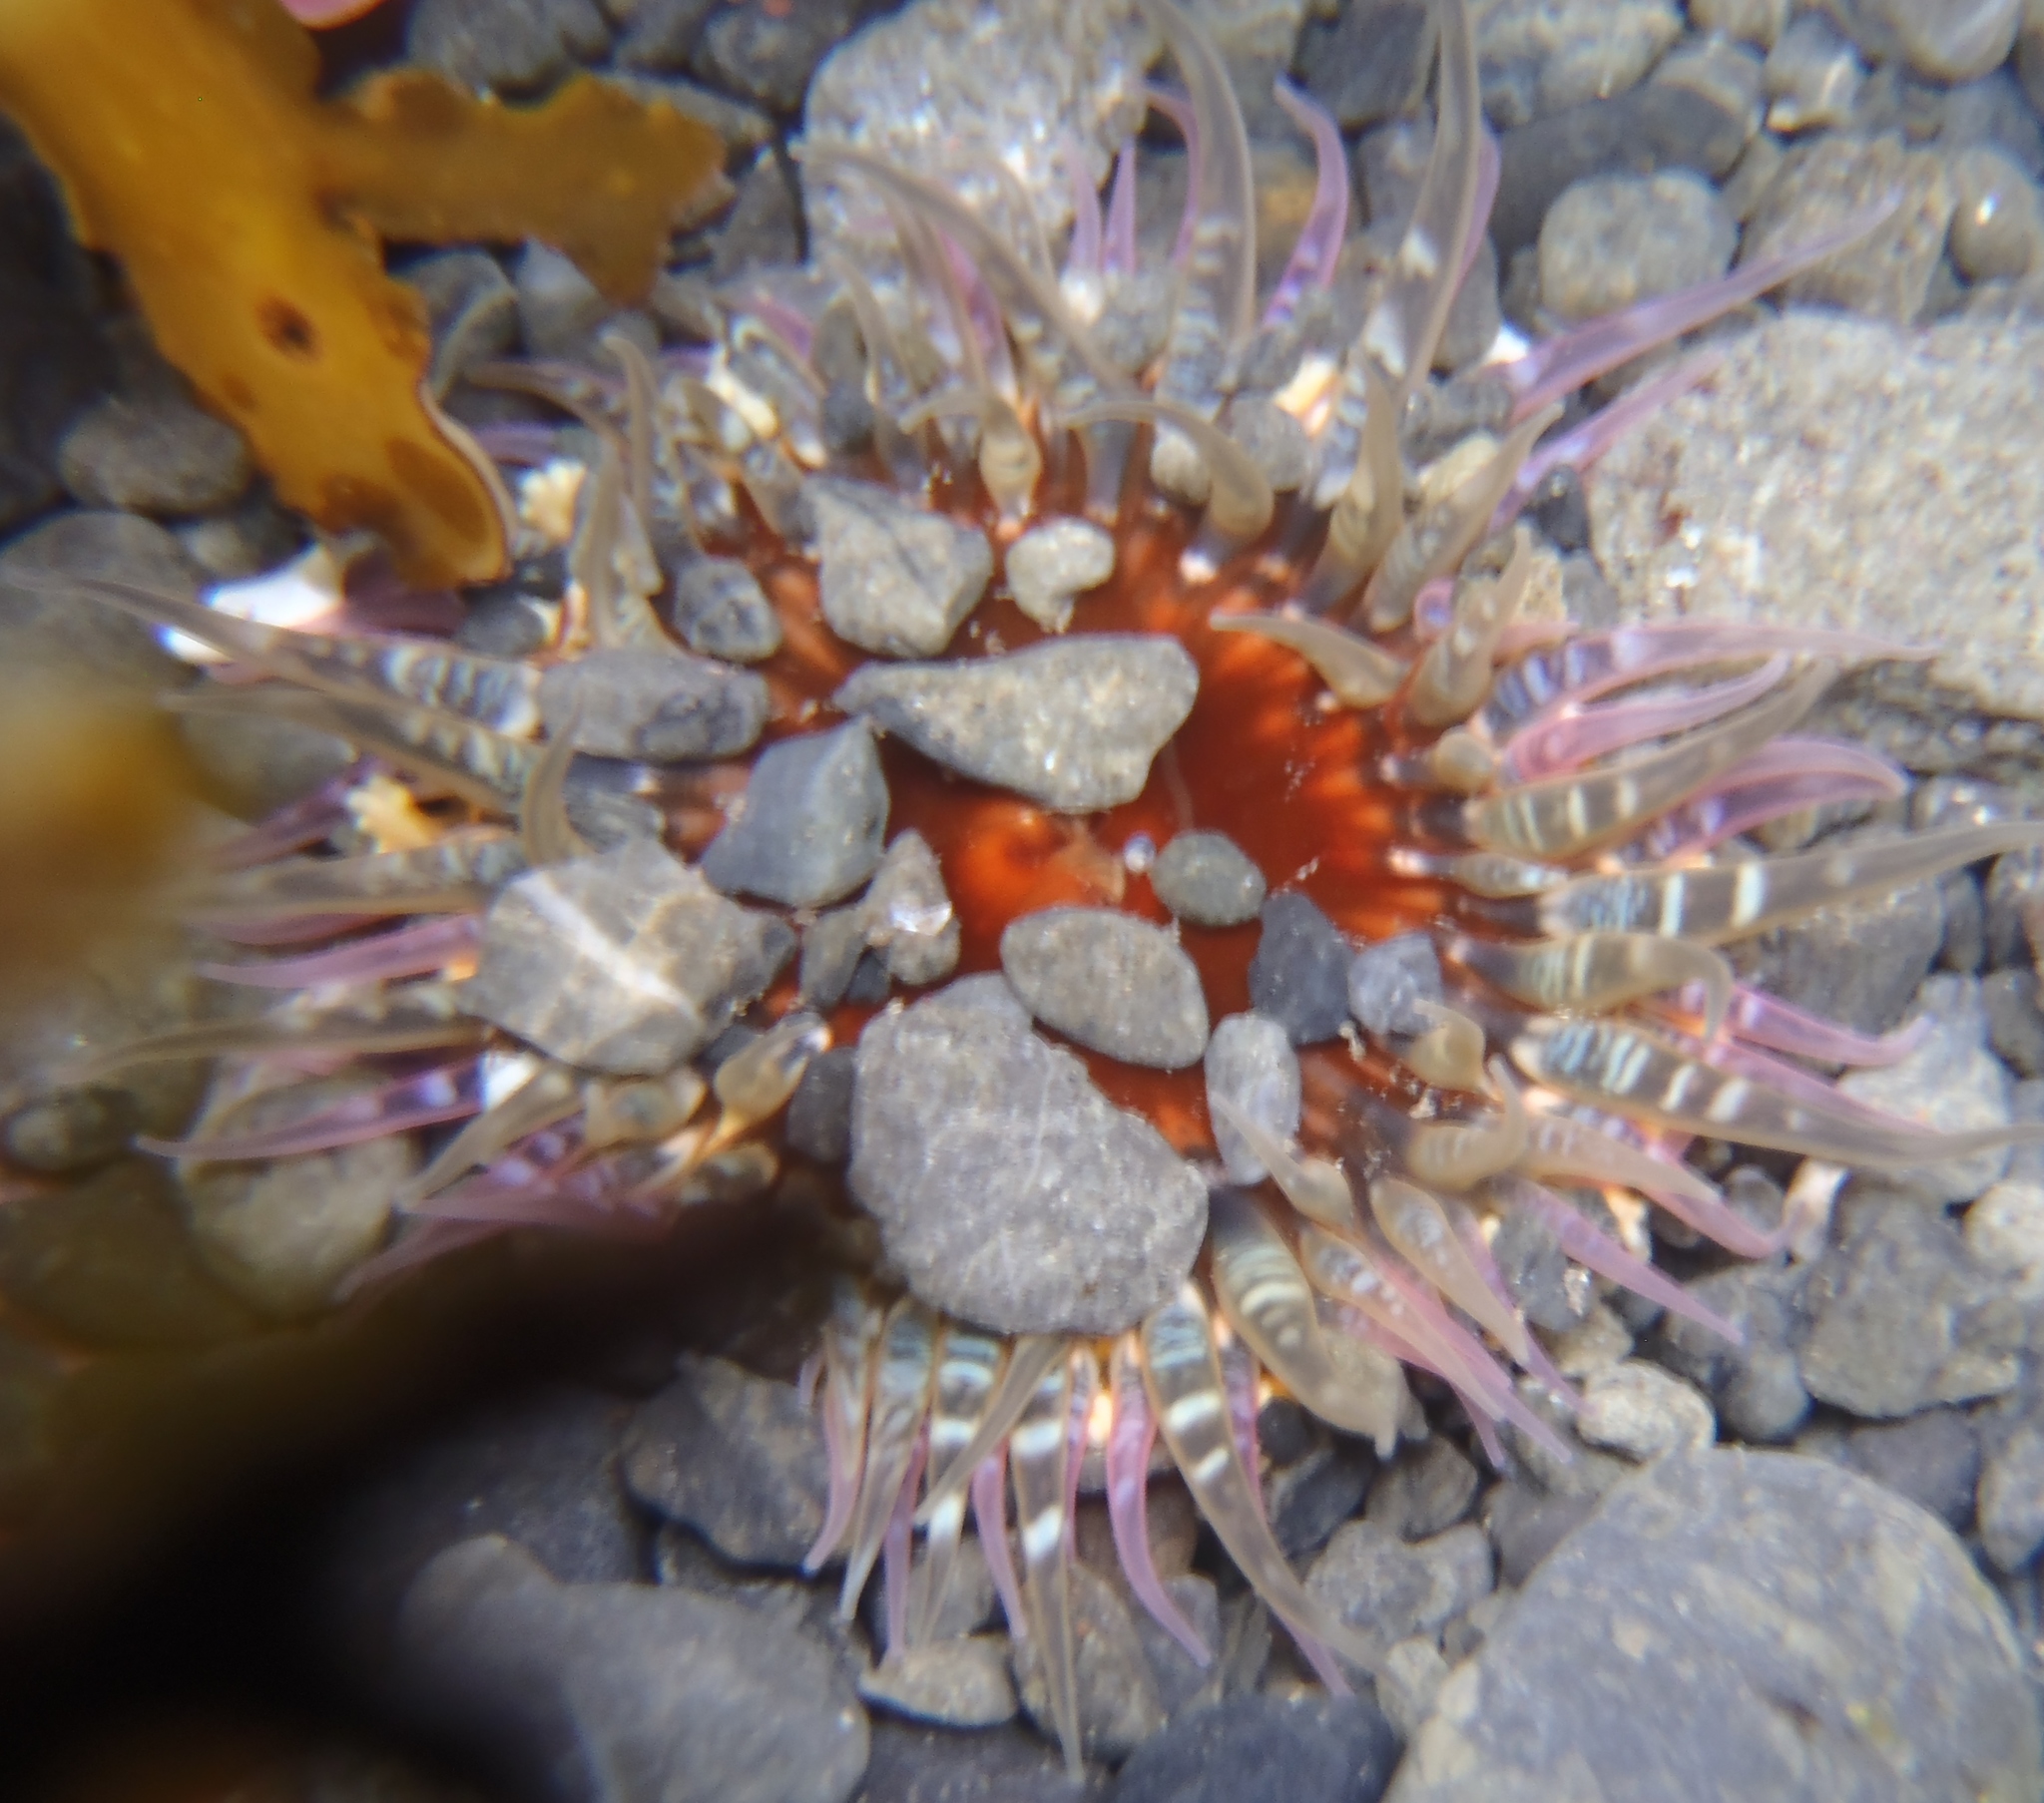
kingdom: Animalia
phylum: Cnidaria
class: Anthozoa
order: Actiniaria
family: Actiniidae
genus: Oulactis
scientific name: Oulactis muscosa
